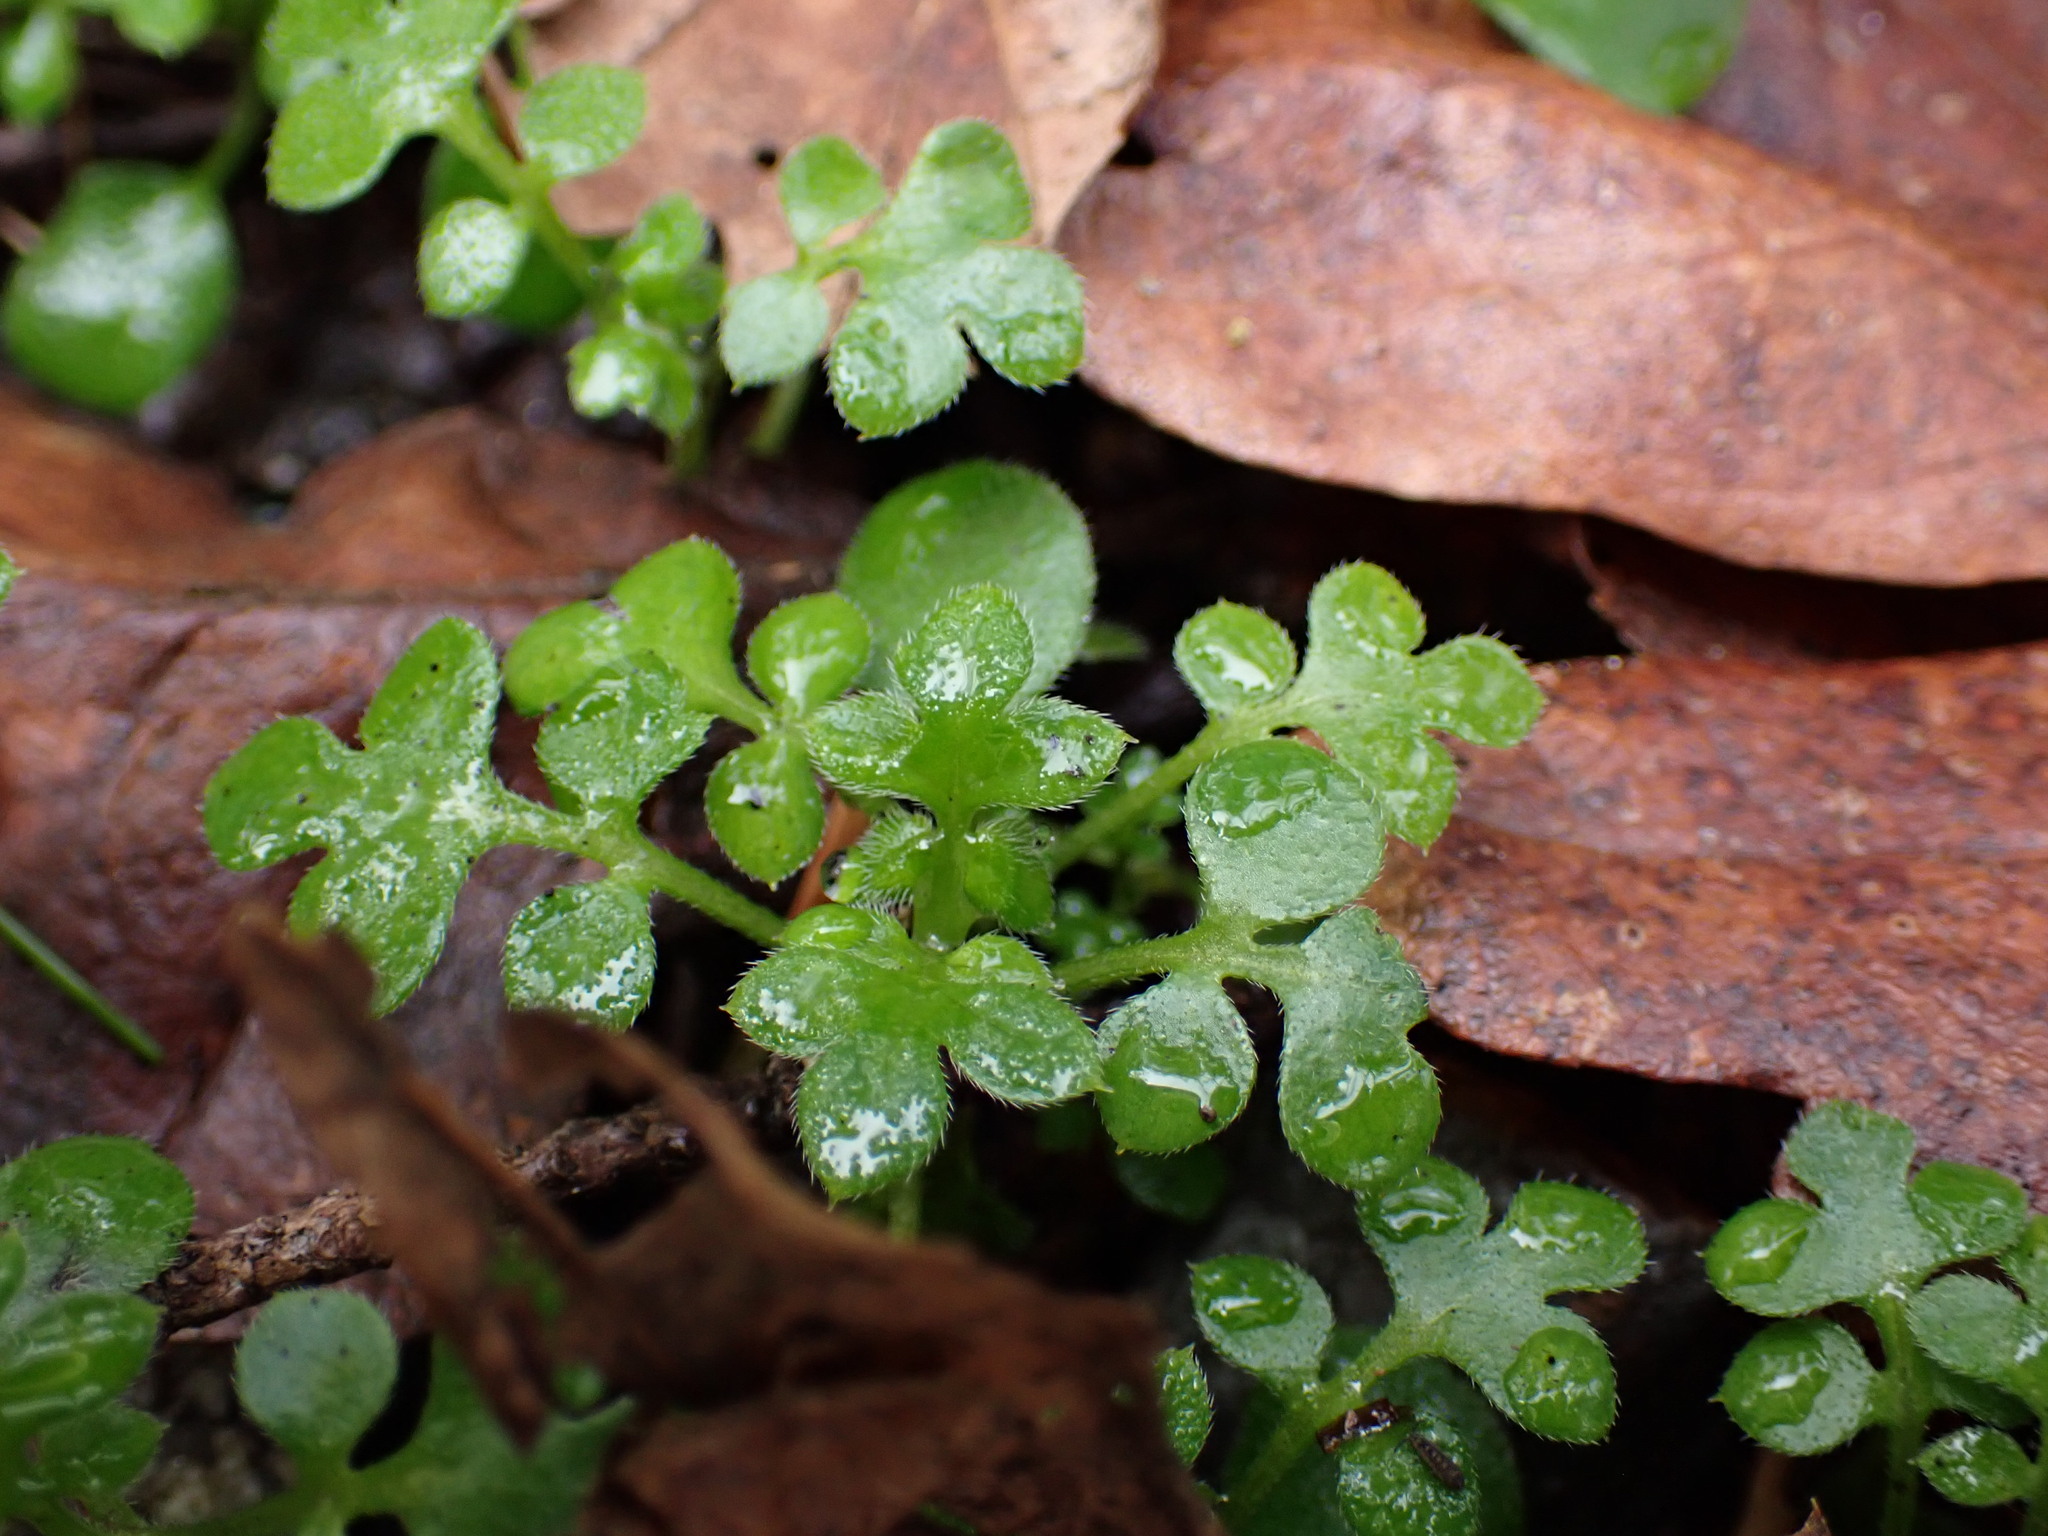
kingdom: Plantae
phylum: Tracheophyta
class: Magnoliopsida
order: Boraginales
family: Hydrophyllaceae
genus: Nemophila
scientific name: Nemophila parviflora
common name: Small-flowered baby-blue-eyes
